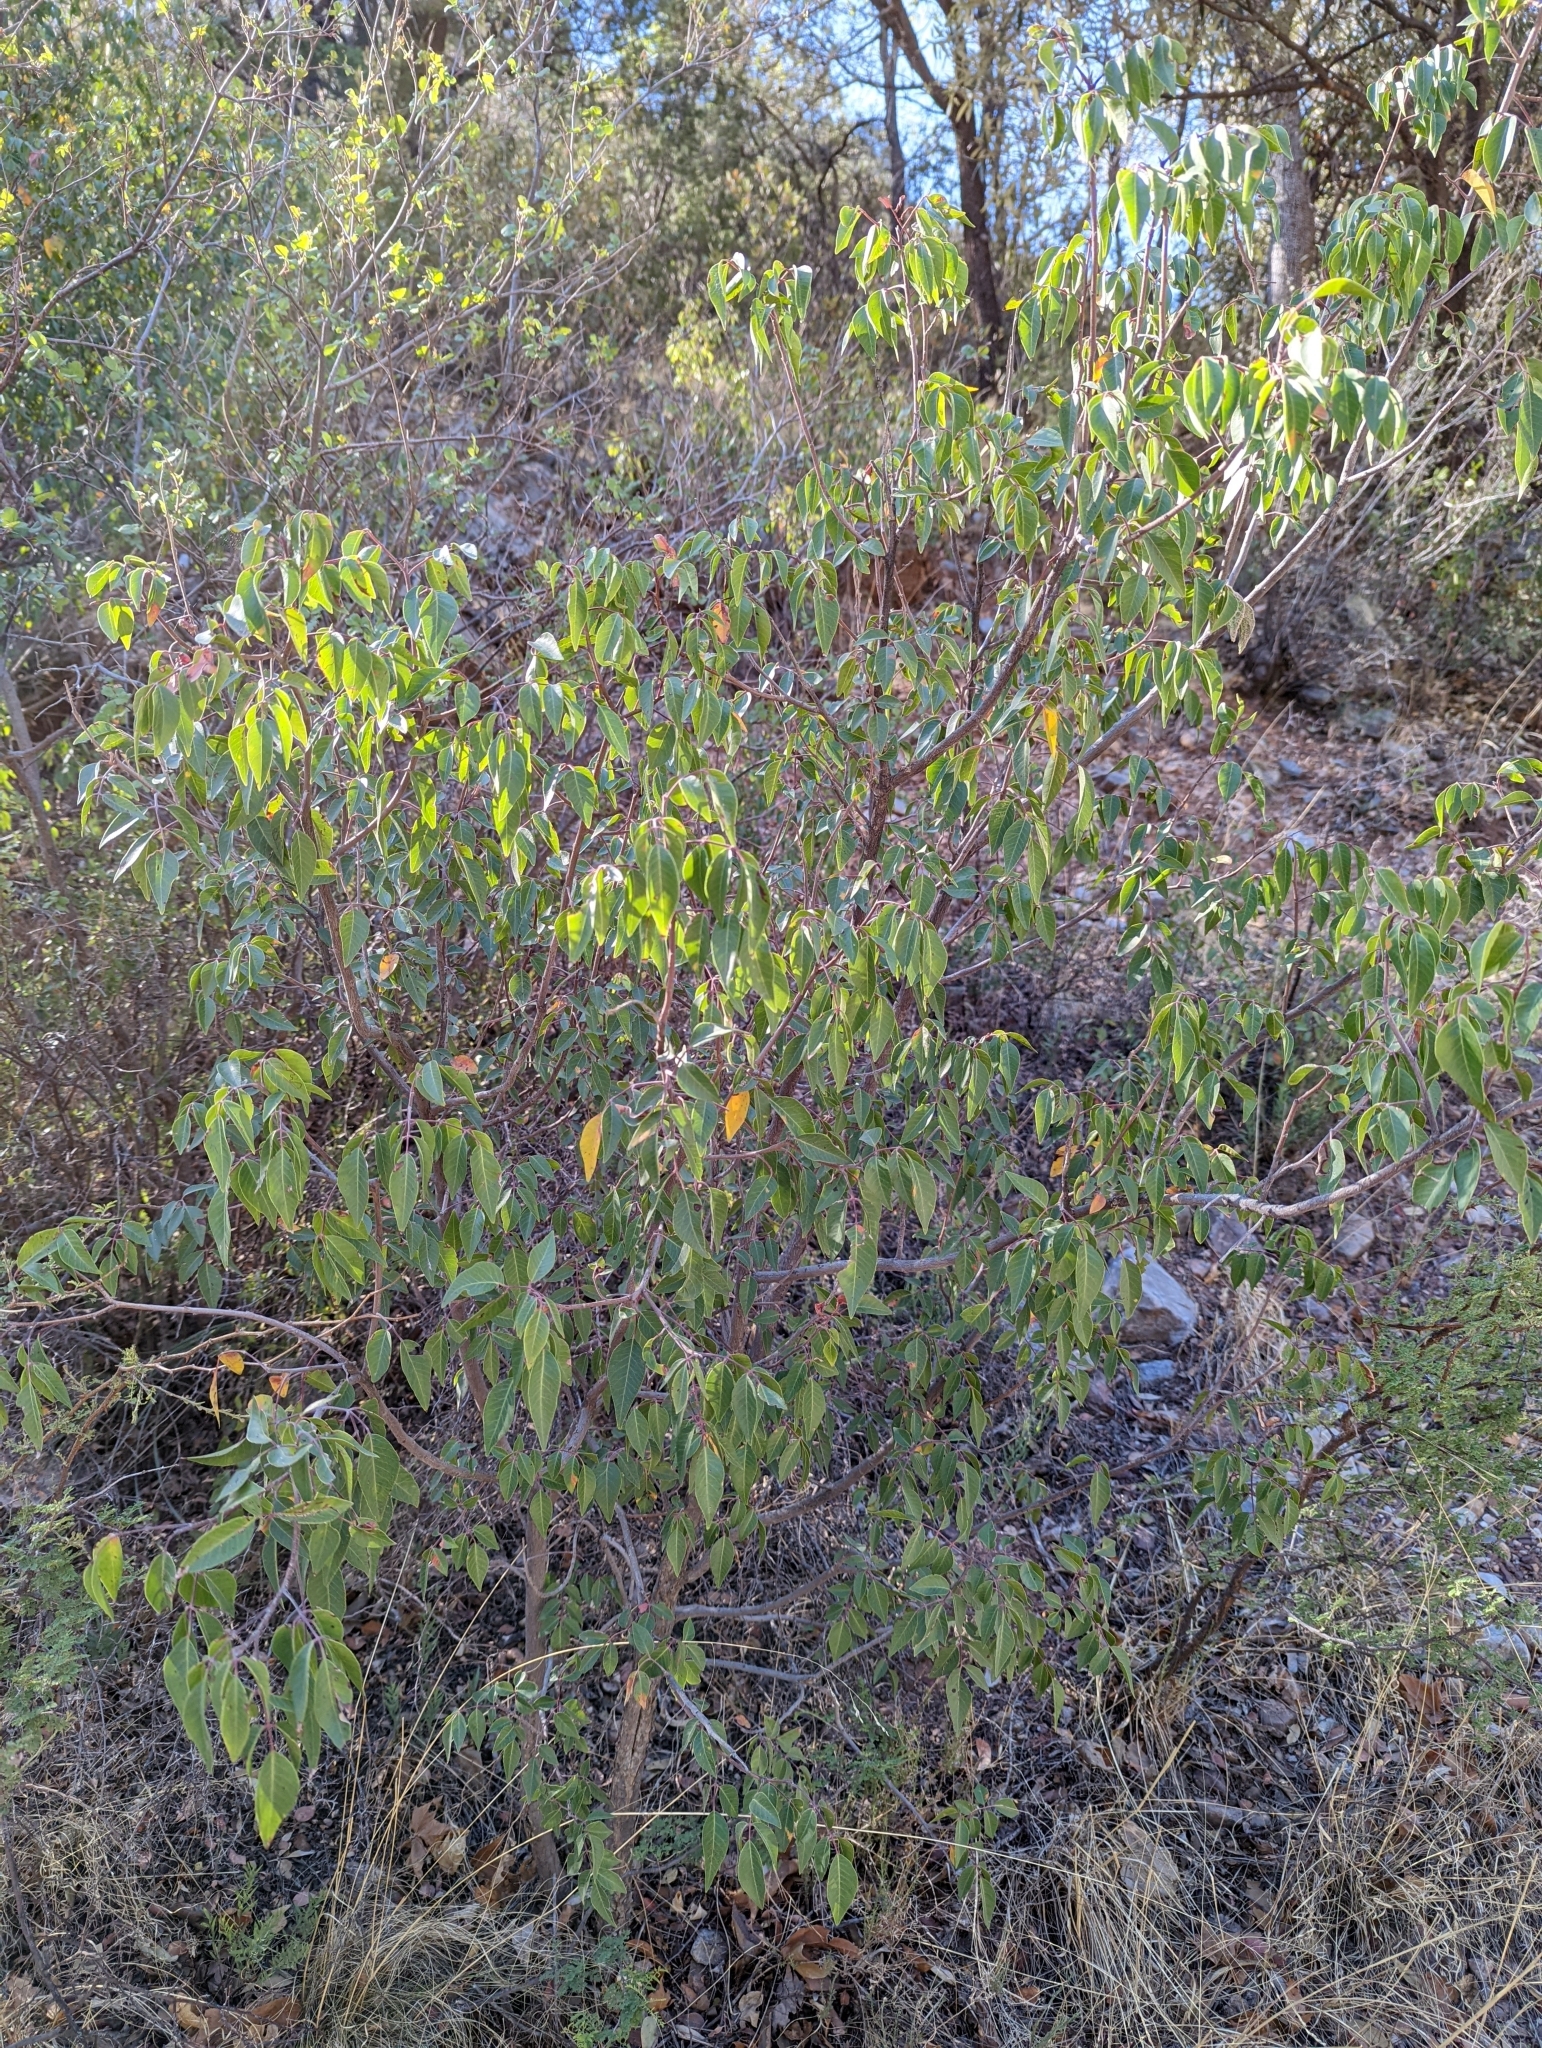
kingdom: Plantae
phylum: Tracheophyta
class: Magnoliopsida
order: Sapindales
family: Anacardiaceae
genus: Rhus
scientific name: Rhus virens
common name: Evergreen sumac
